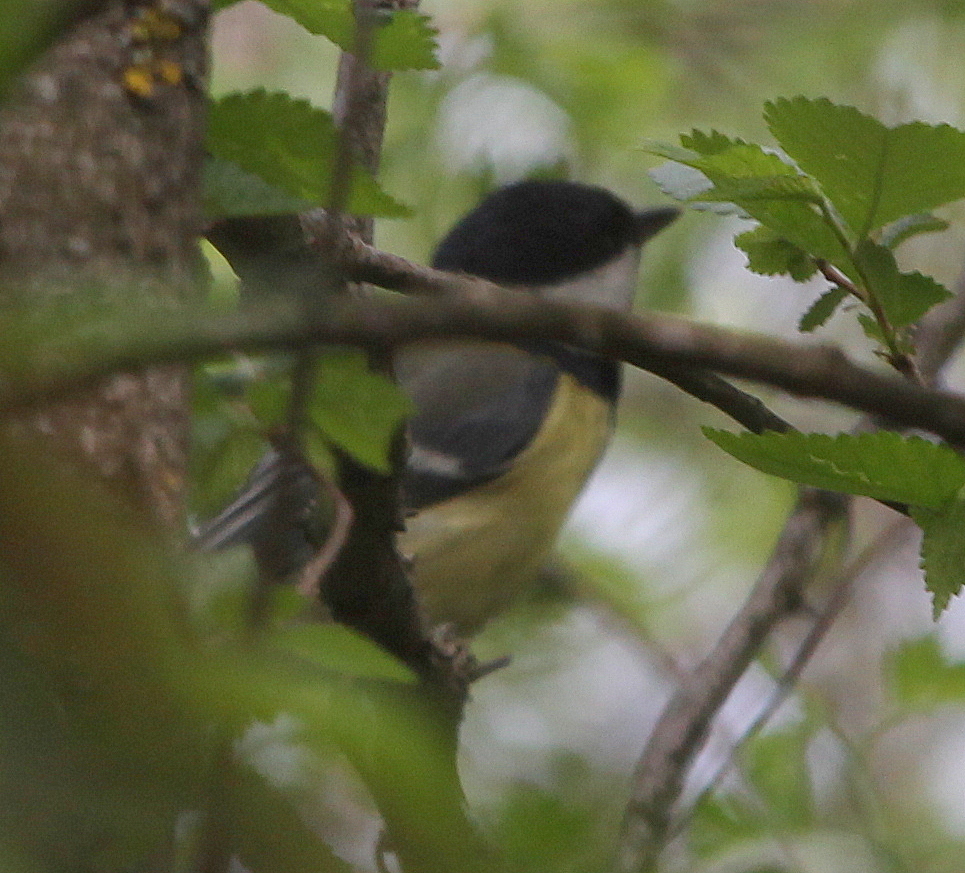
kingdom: Animalia
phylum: Chordata
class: Aves
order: Passeriformes
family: Paridae
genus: Parus
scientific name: Parus major
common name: Great tit
